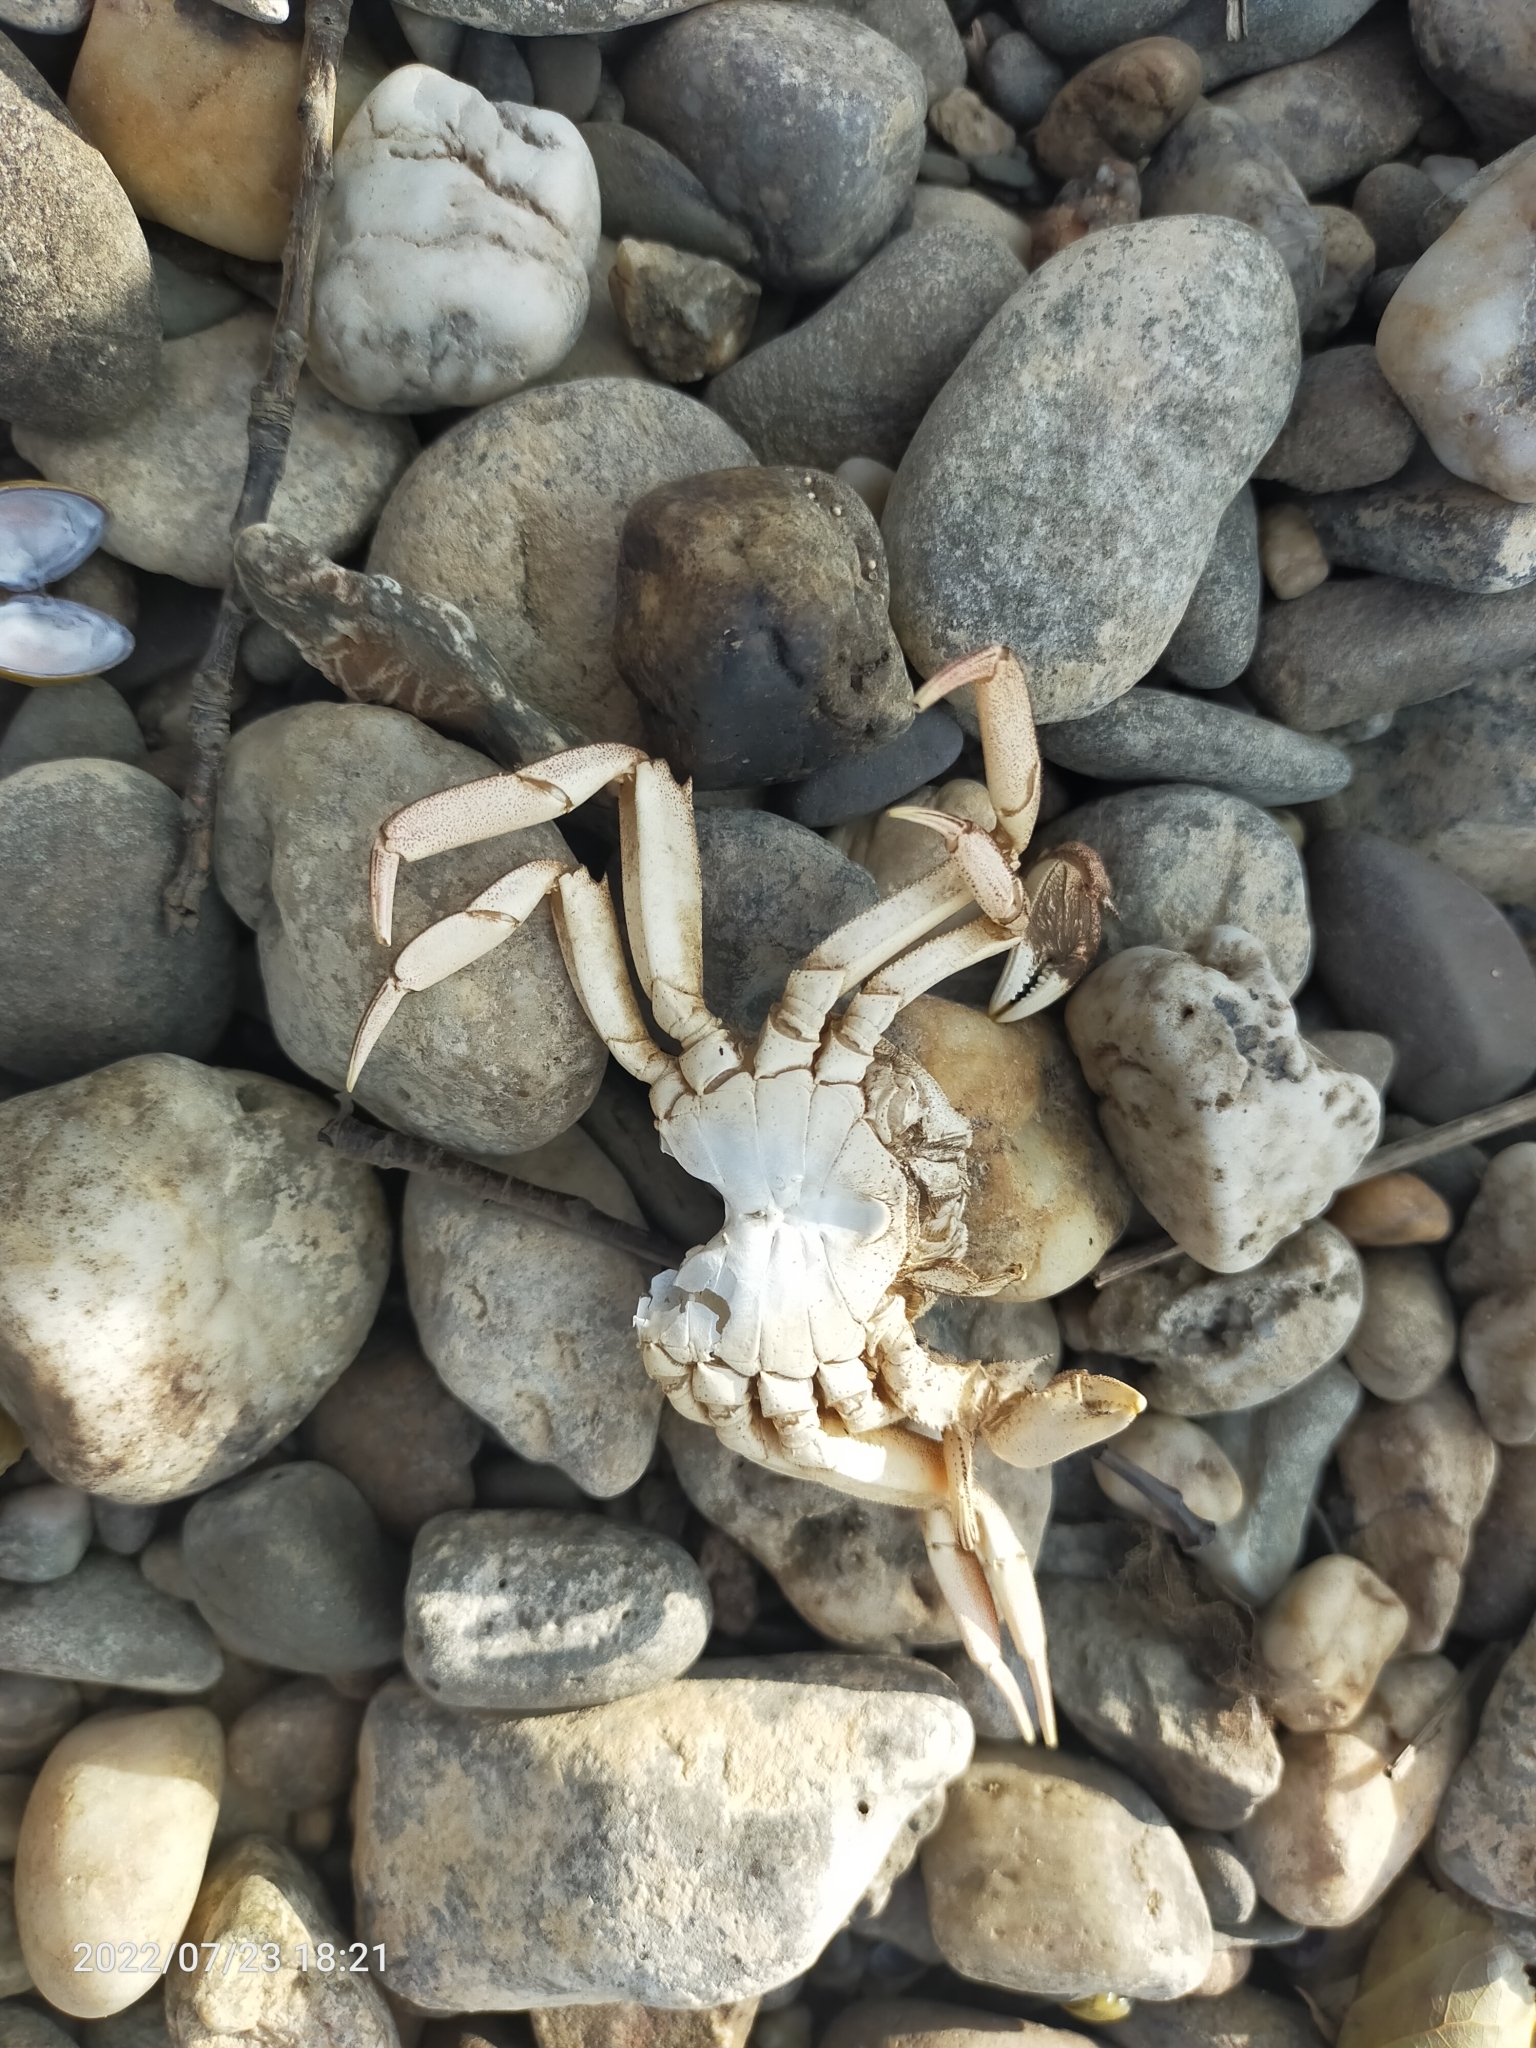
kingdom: Animalia
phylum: Arthropoda
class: Malacostraca
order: Decapoda
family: Varunidae
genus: Eriocheir
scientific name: Eriocheir sinensis
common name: Chinese mitten crab
